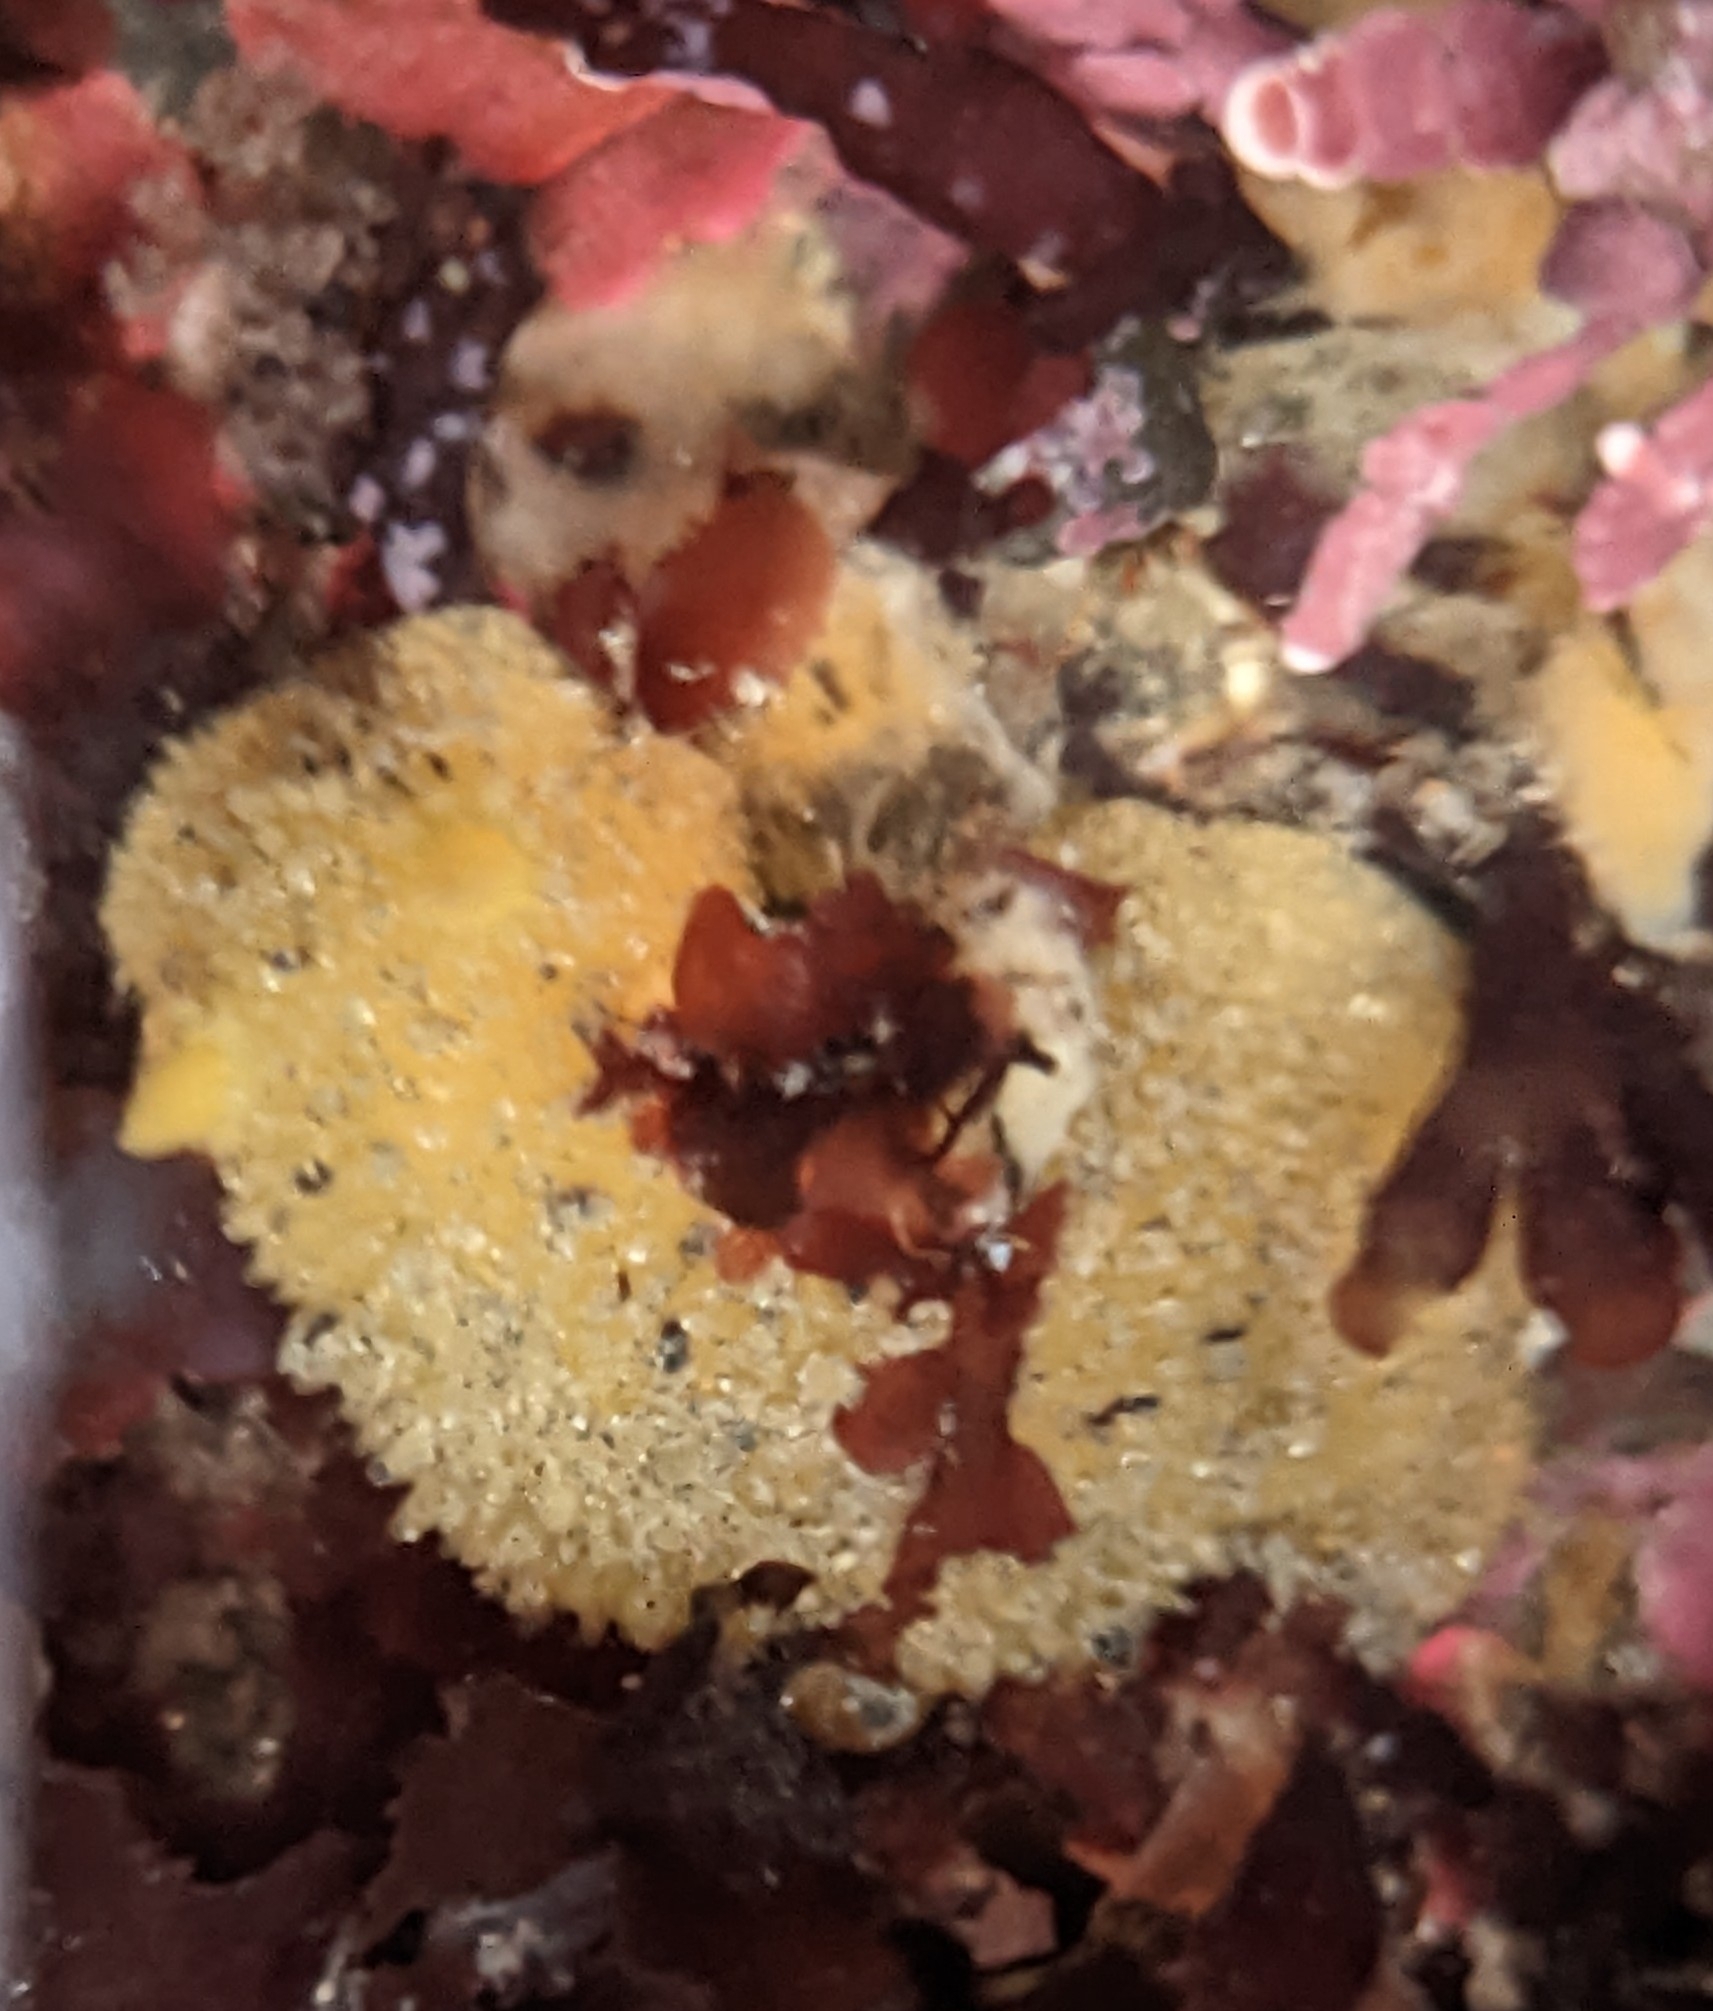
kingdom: Animalia
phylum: Mollusca
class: Gastropoda
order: Nudibranchia
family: Dorididae
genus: Doris
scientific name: Doris montereyensis
